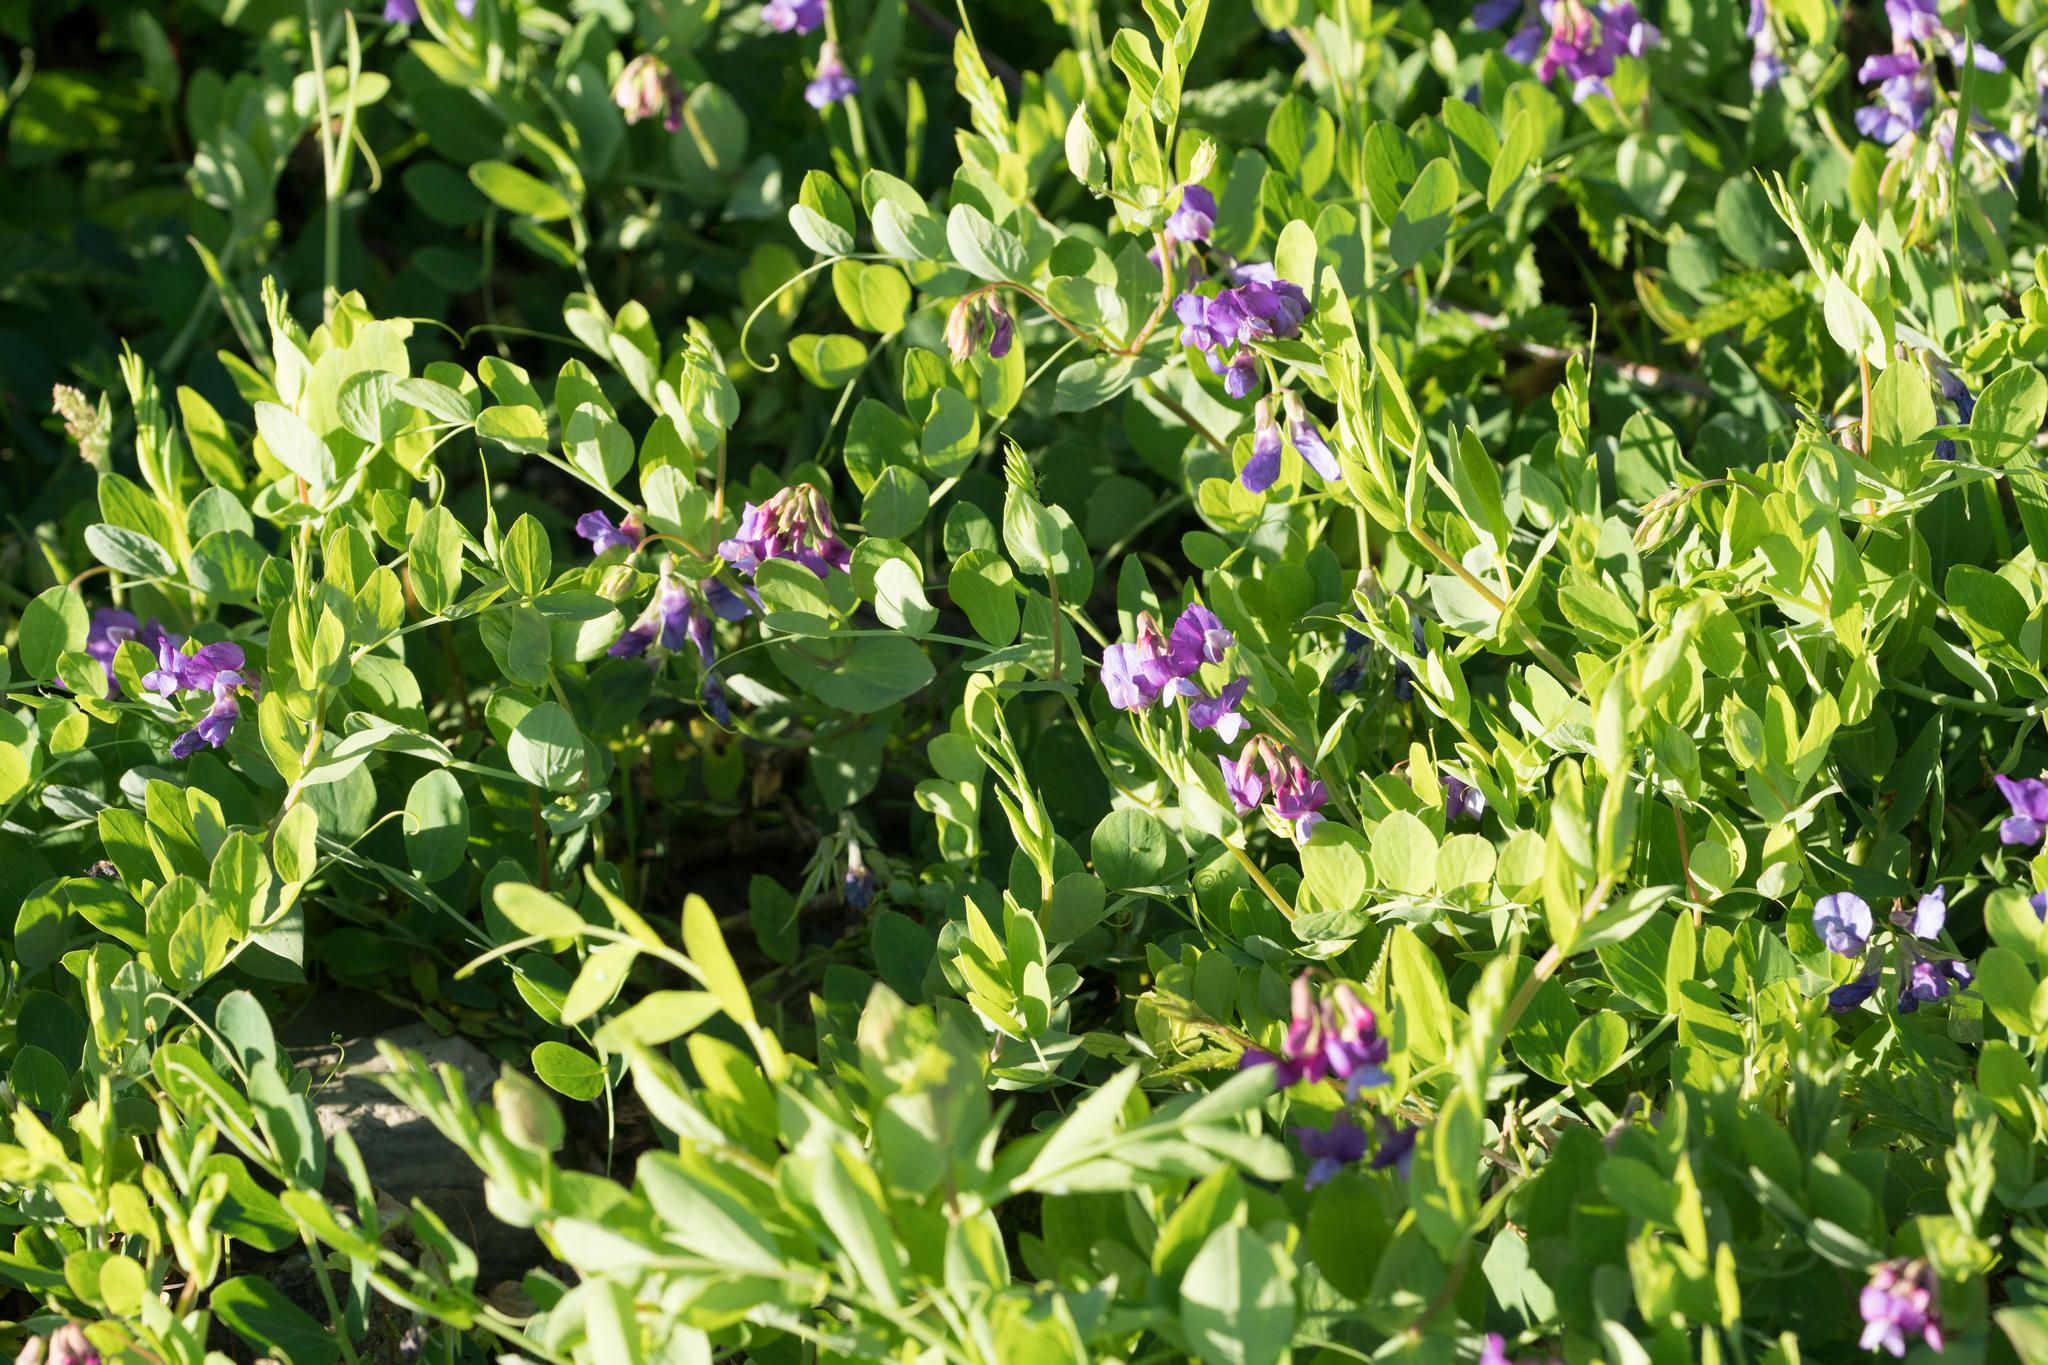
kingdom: Plantae
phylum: Tracheophyta
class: Magnoliopsida
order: Fabales
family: Fabaceae
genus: Lathyrus
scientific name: Lathyrus japonicus
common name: Sea pea
